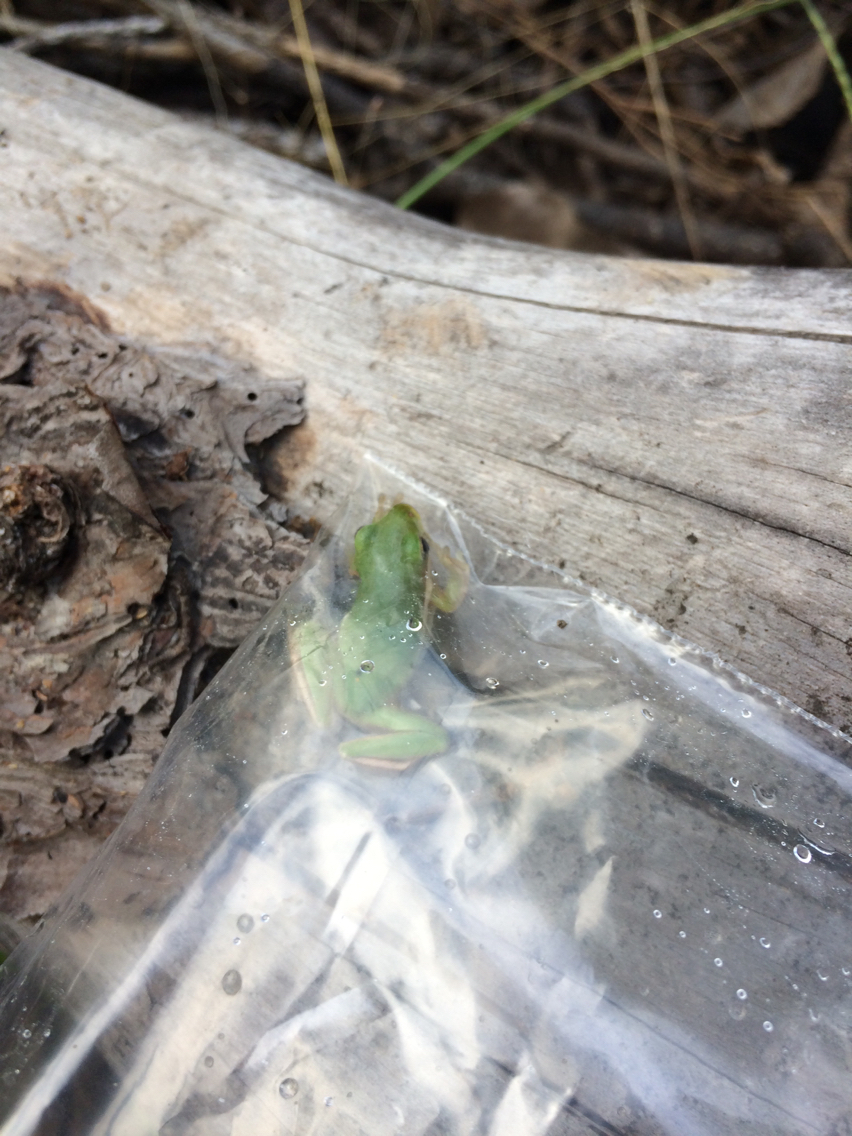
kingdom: Animalia
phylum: Chordata
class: Amphibia
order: Anura
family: Hylidae
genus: Dryophytes
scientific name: Dryophytes cinereus
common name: Green treefrog
